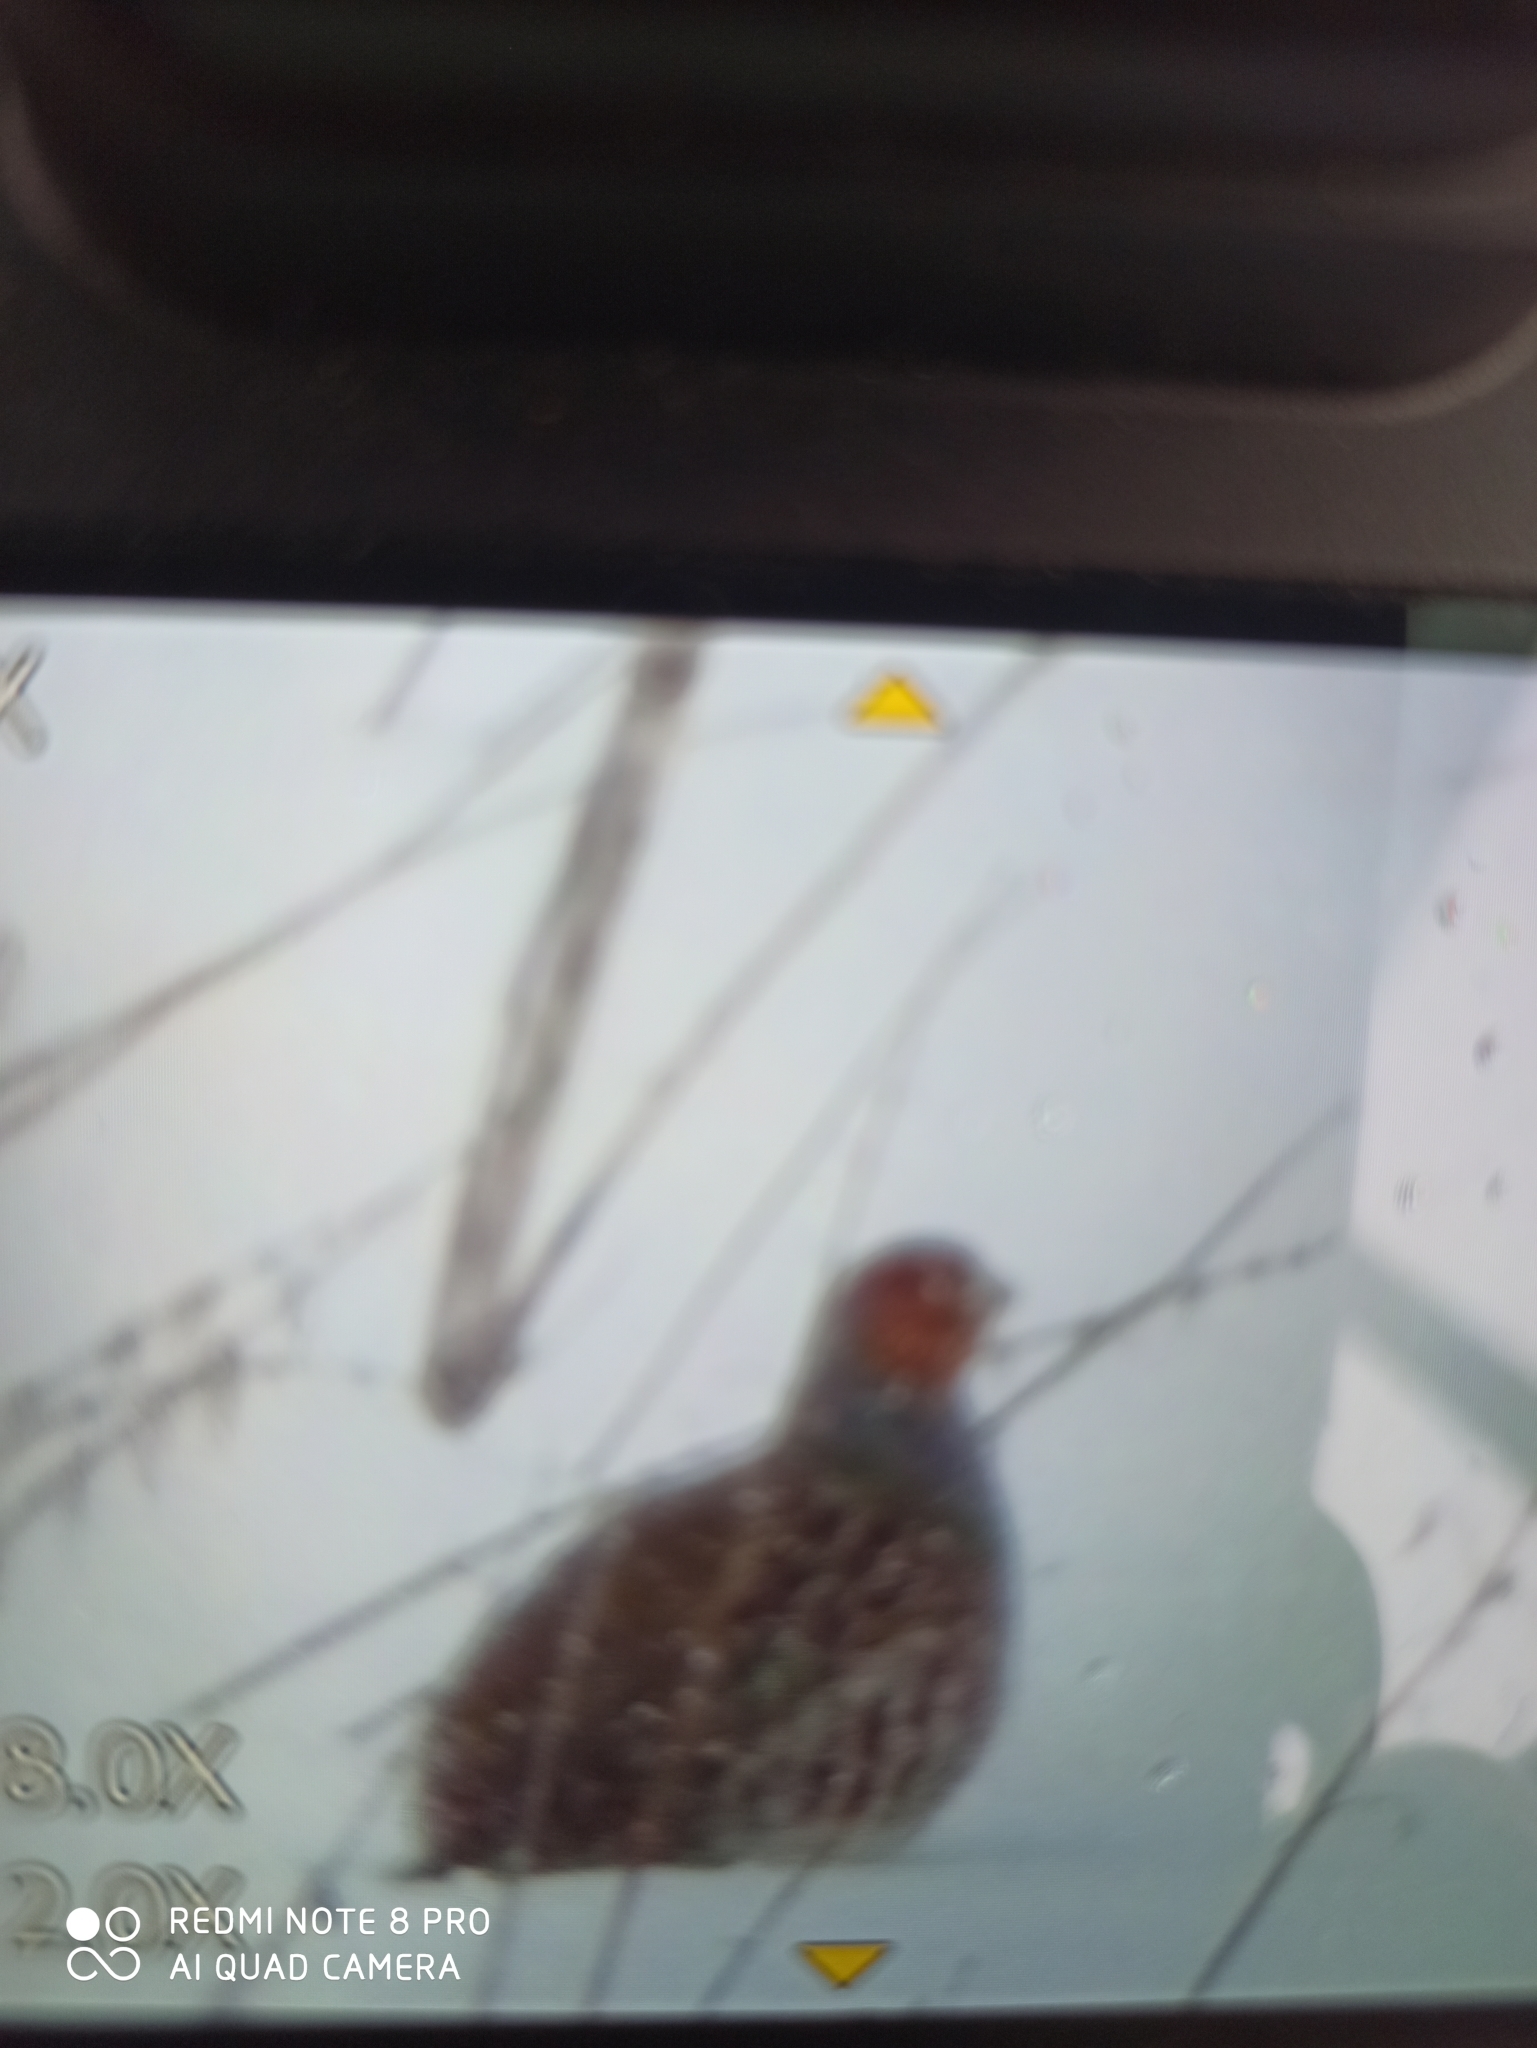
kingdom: Animalia
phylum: Chordata
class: Aves
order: Galliformes
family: Phasianidae
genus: Perdix
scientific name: Perdix perdix
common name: Grey partridge
